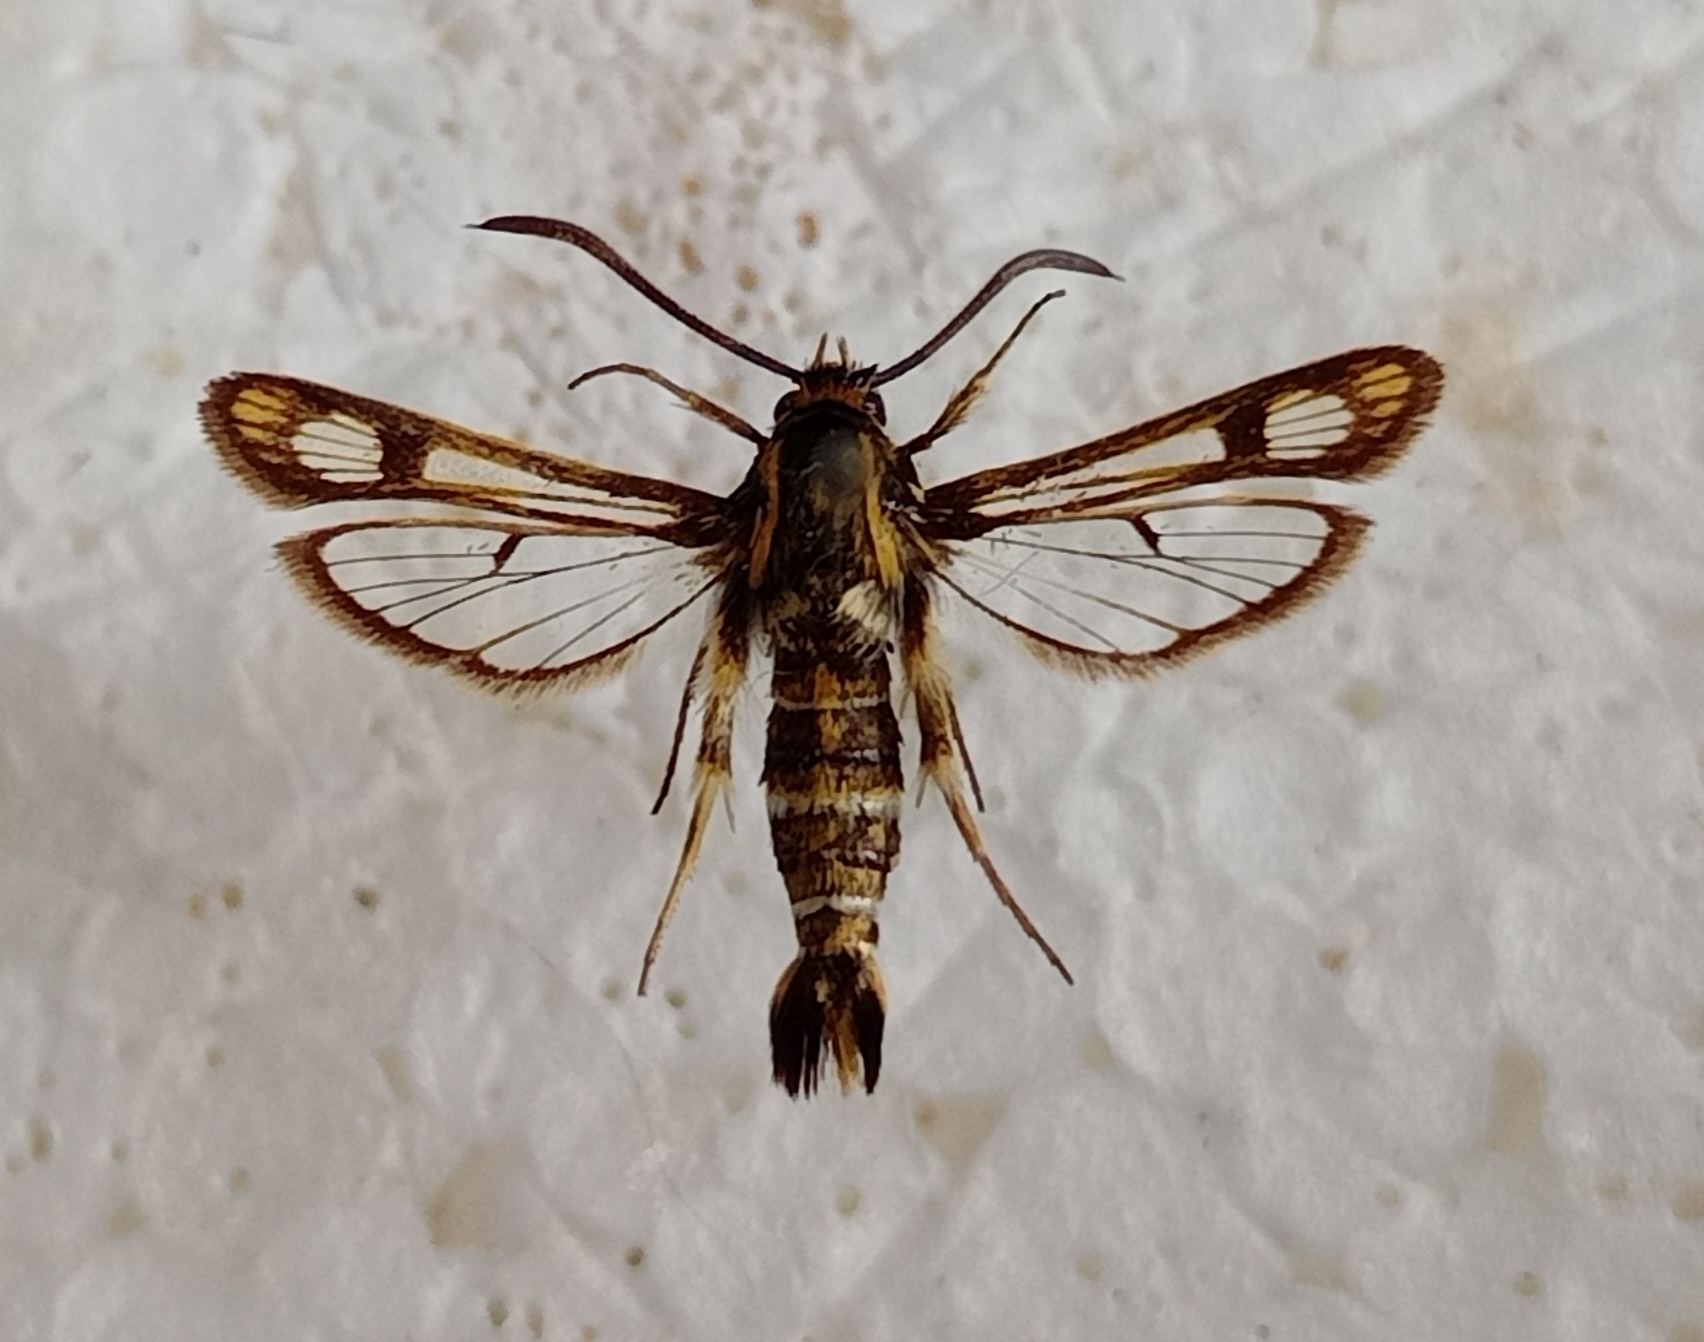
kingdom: Animalia
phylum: Arthropoda
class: Insecta
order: Lepidoptera
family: Sesiidae
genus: Chamaesphecia
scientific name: Chamaesphecia bibioniformis
